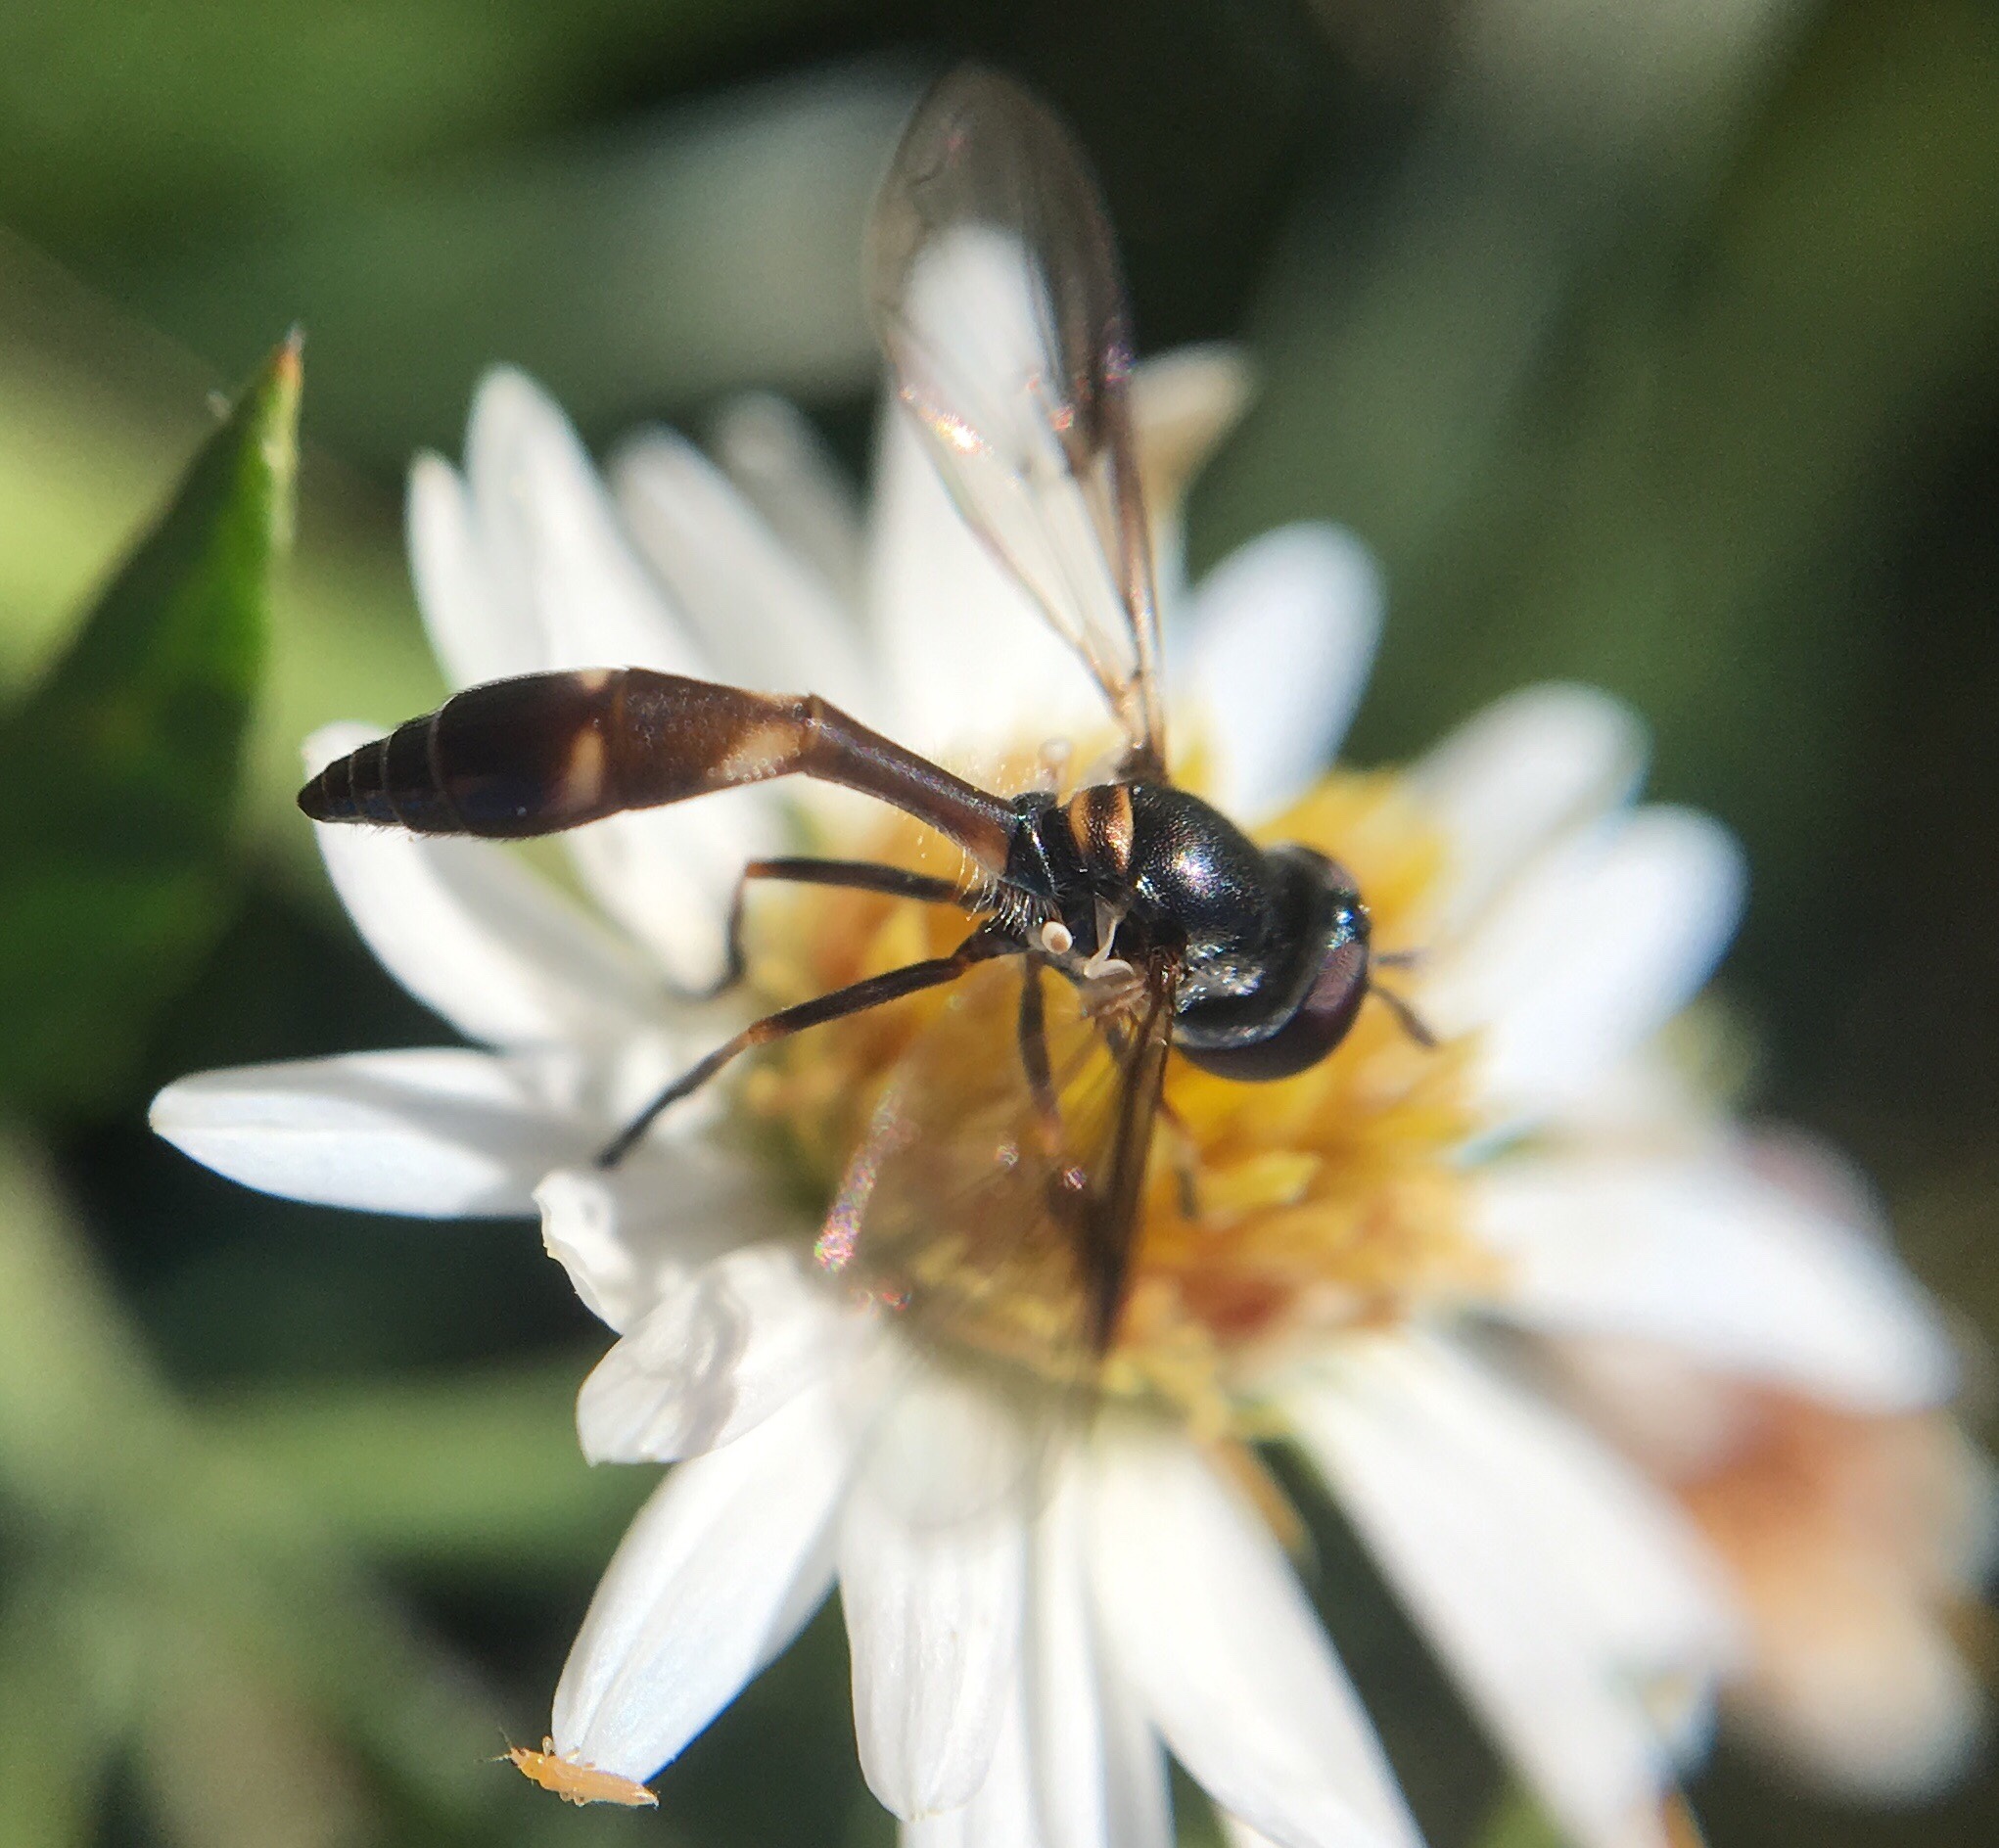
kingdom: Animalia
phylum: Arthropoda
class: Insecta
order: Diptera
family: Syrphidae
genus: Dioprosopa
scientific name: Dioprosopa clavatus
